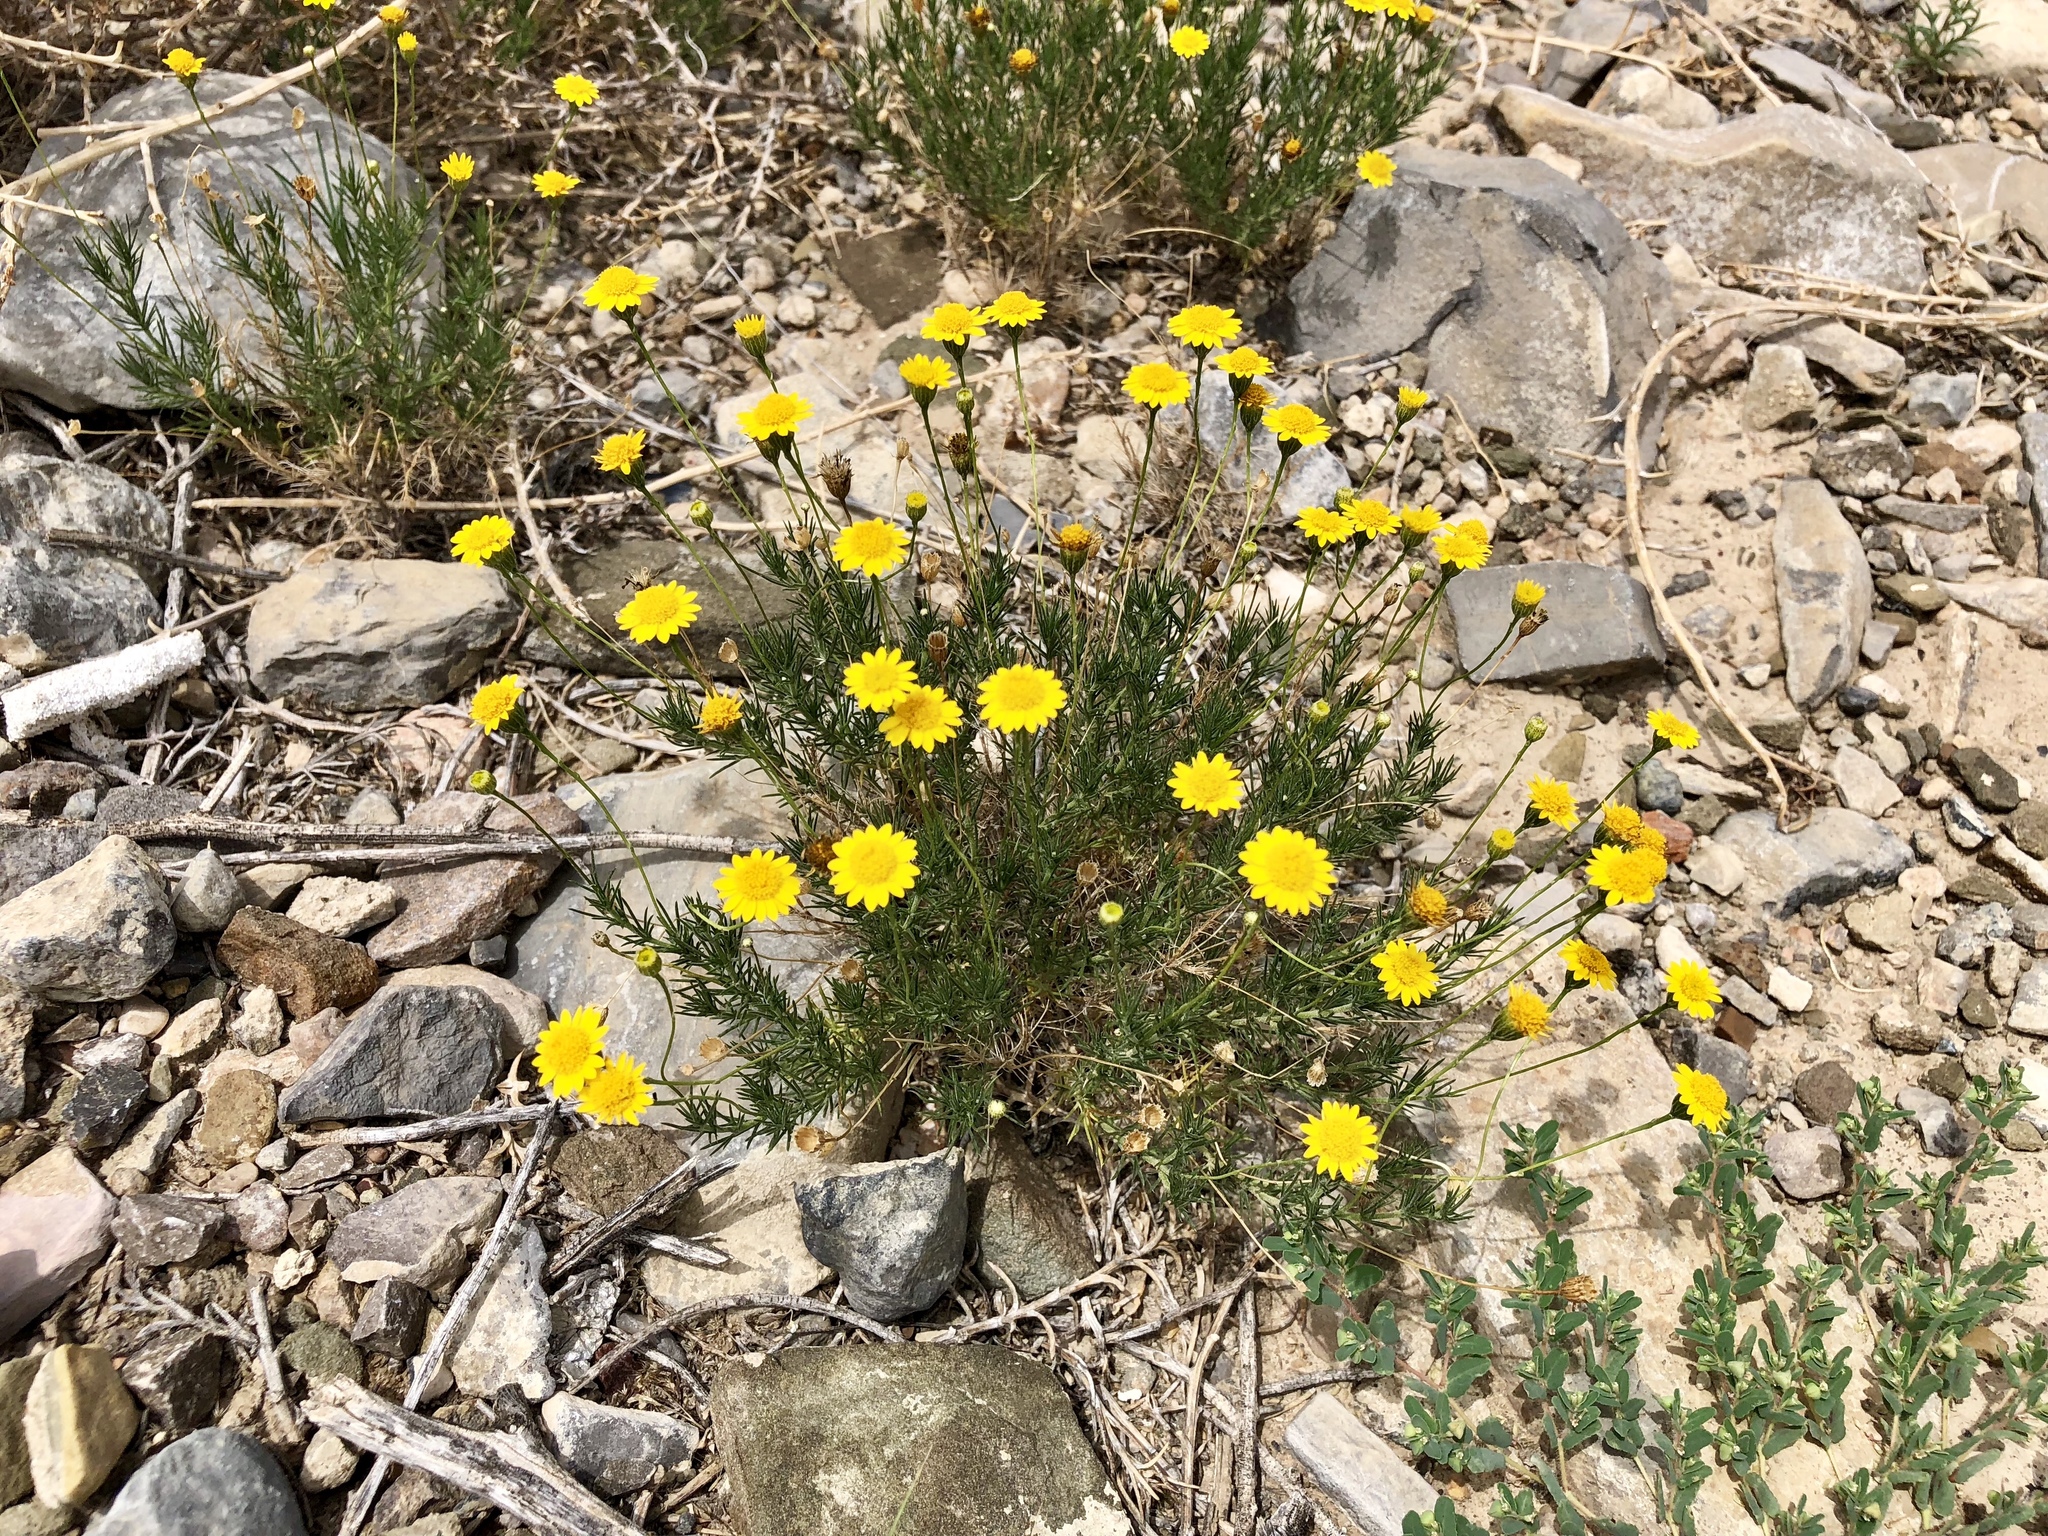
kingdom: Plantae
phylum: Tracheophyta
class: Magnoliopsida
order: Asterales
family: Asteraceae
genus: Thymophylla
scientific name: Thymophylla pentachaeta
